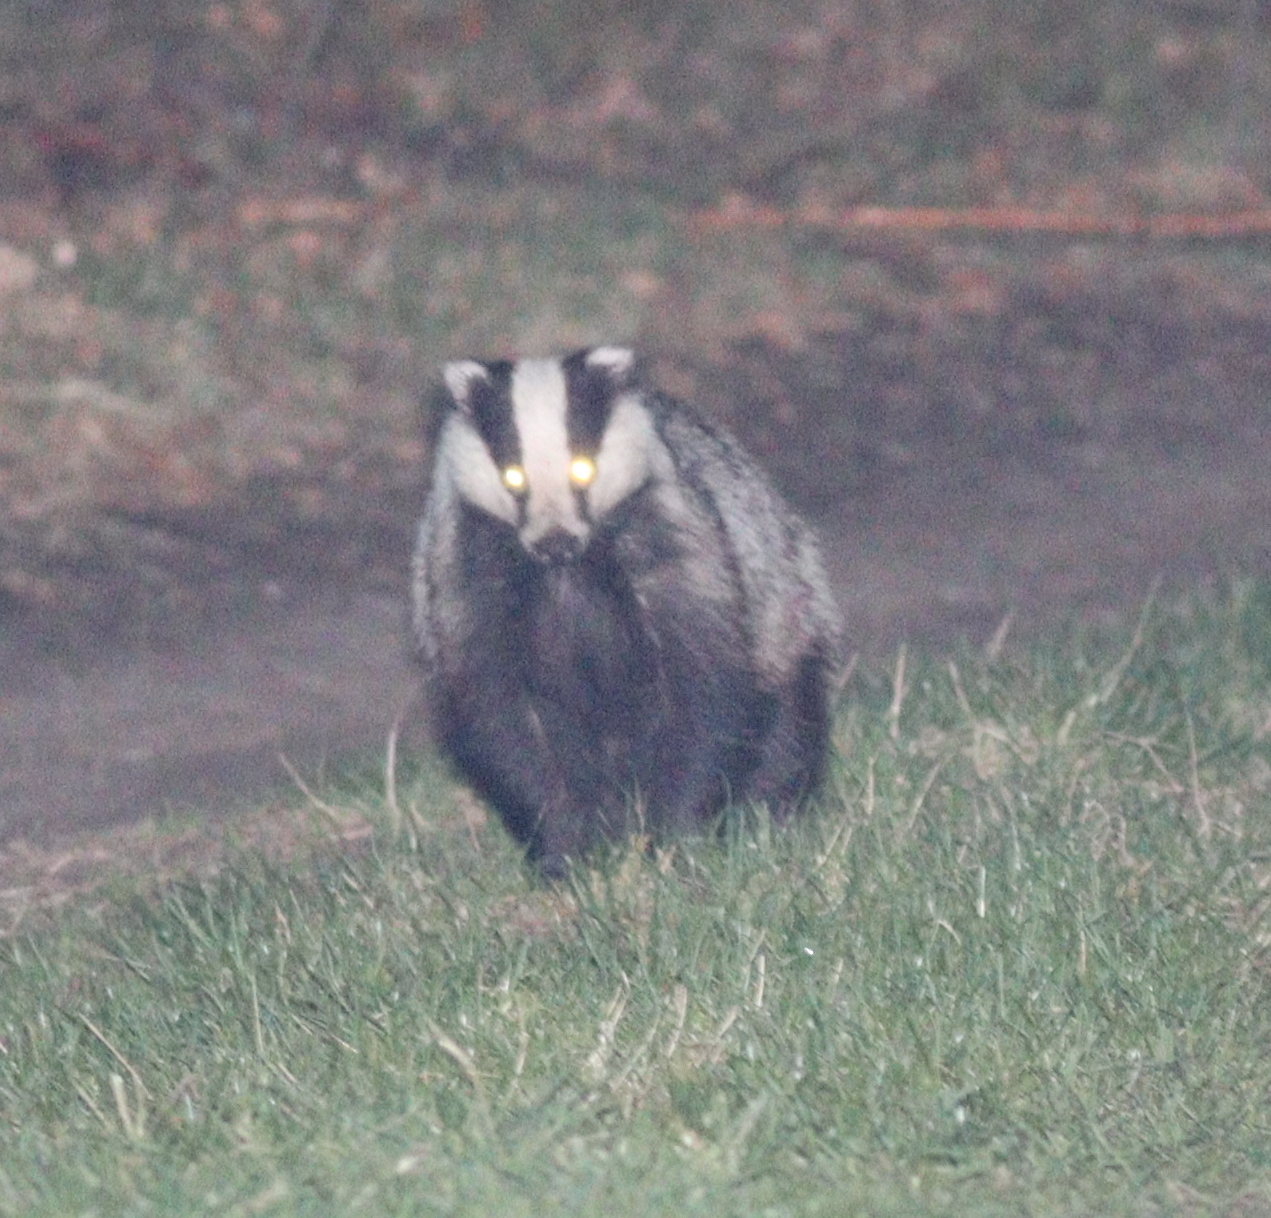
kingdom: Animalia
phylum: Chordata
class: Mammalia
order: Carnivora
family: Mustelidae
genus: Meles
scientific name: Meles meles
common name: Eurasian badger
